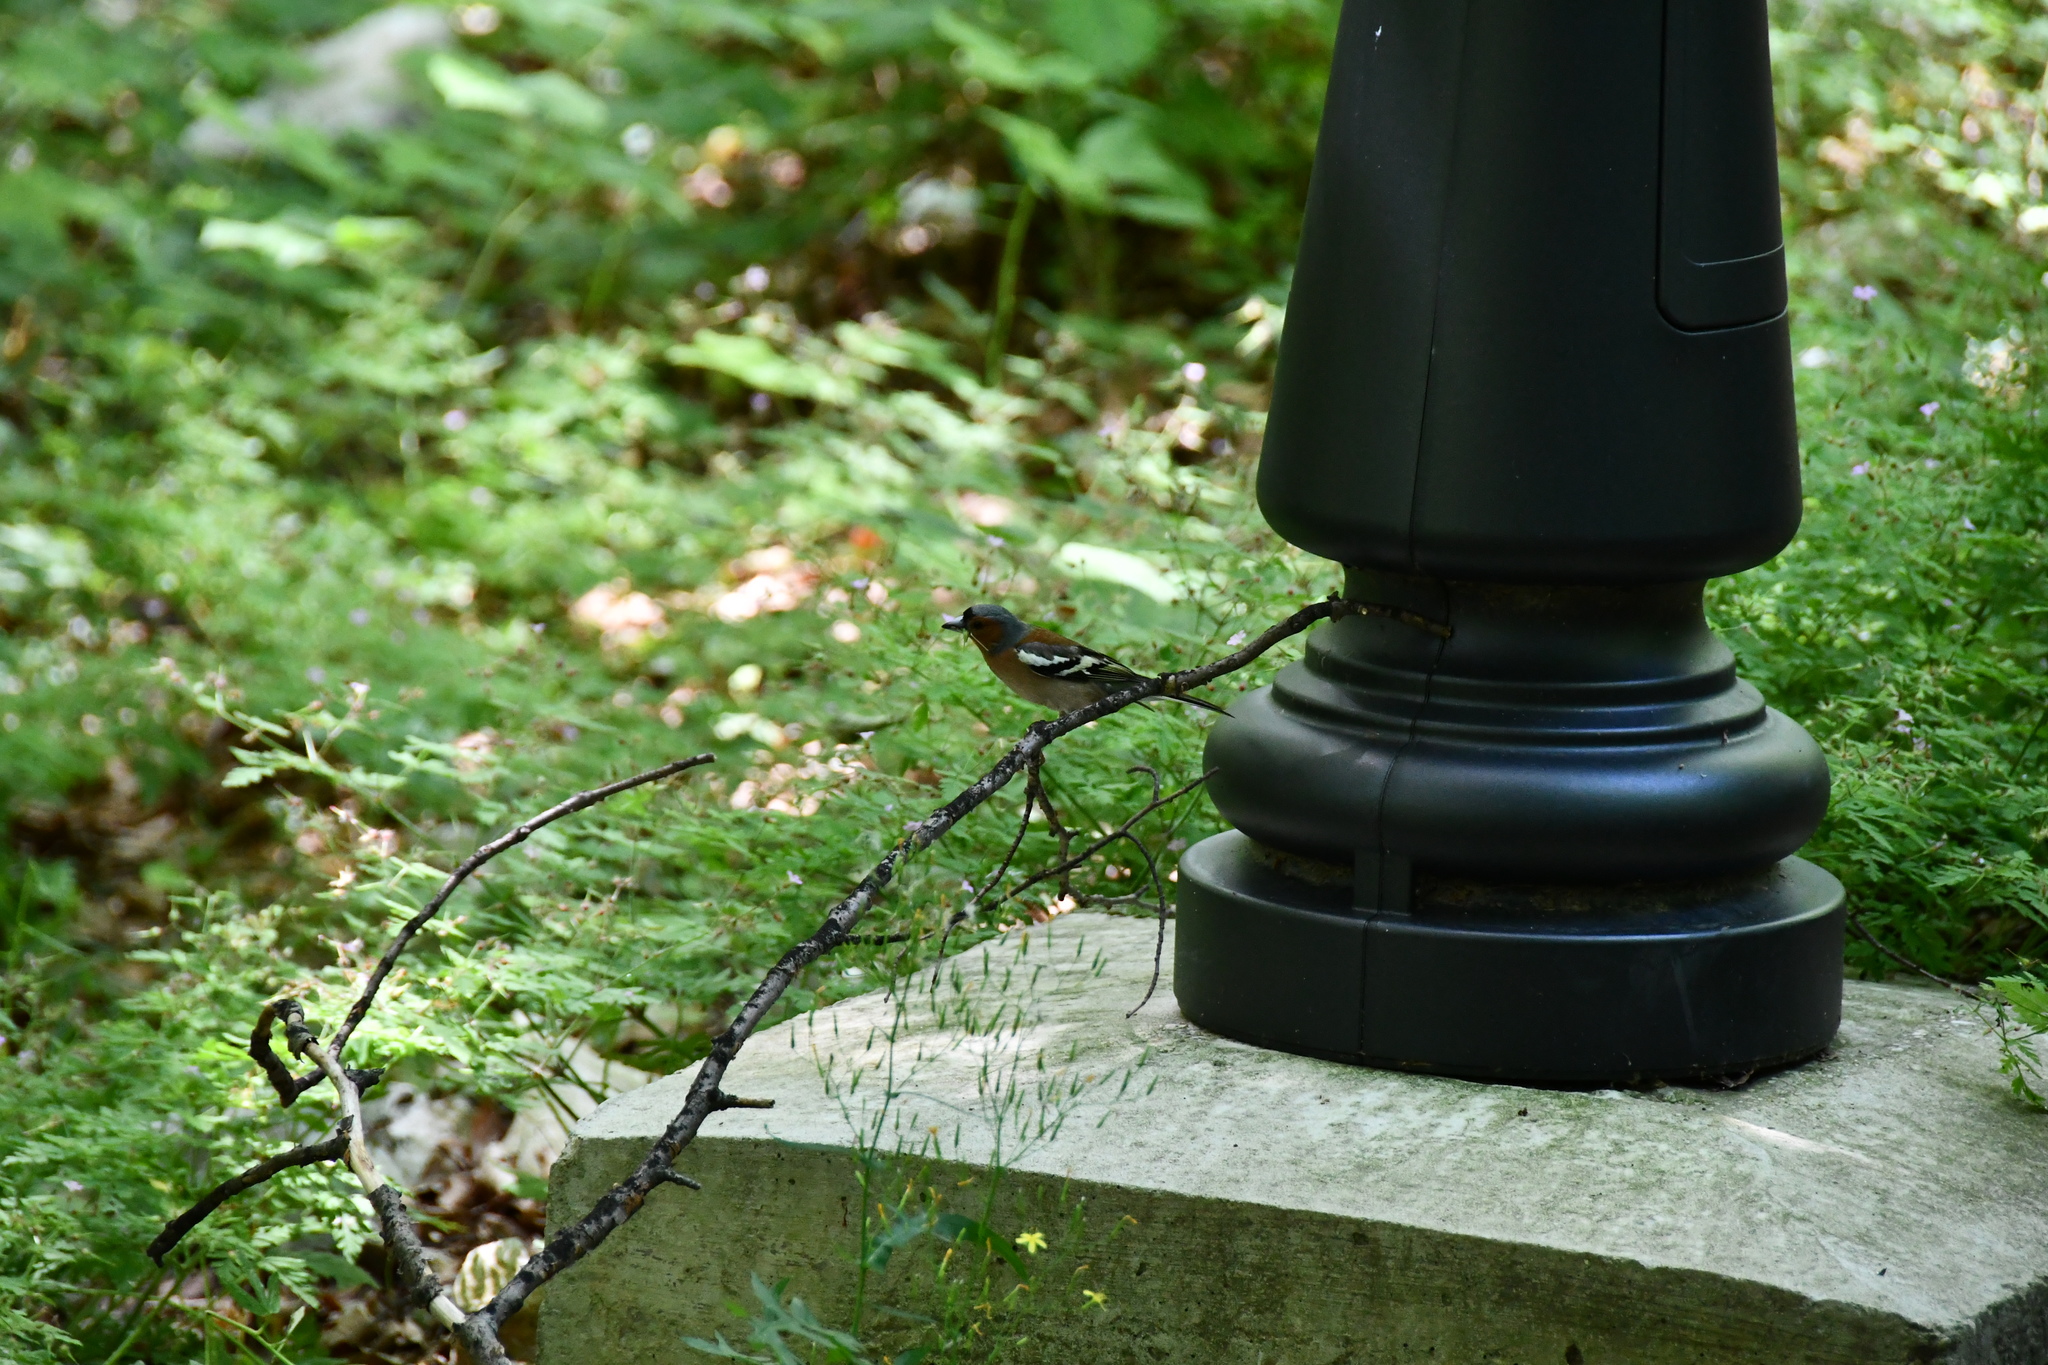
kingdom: Animalia
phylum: Chordata
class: Aves
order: Passeriformes
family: Fringillidae
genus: Fringilla
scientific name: Fringilla coelebs
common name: Common chaffinch
